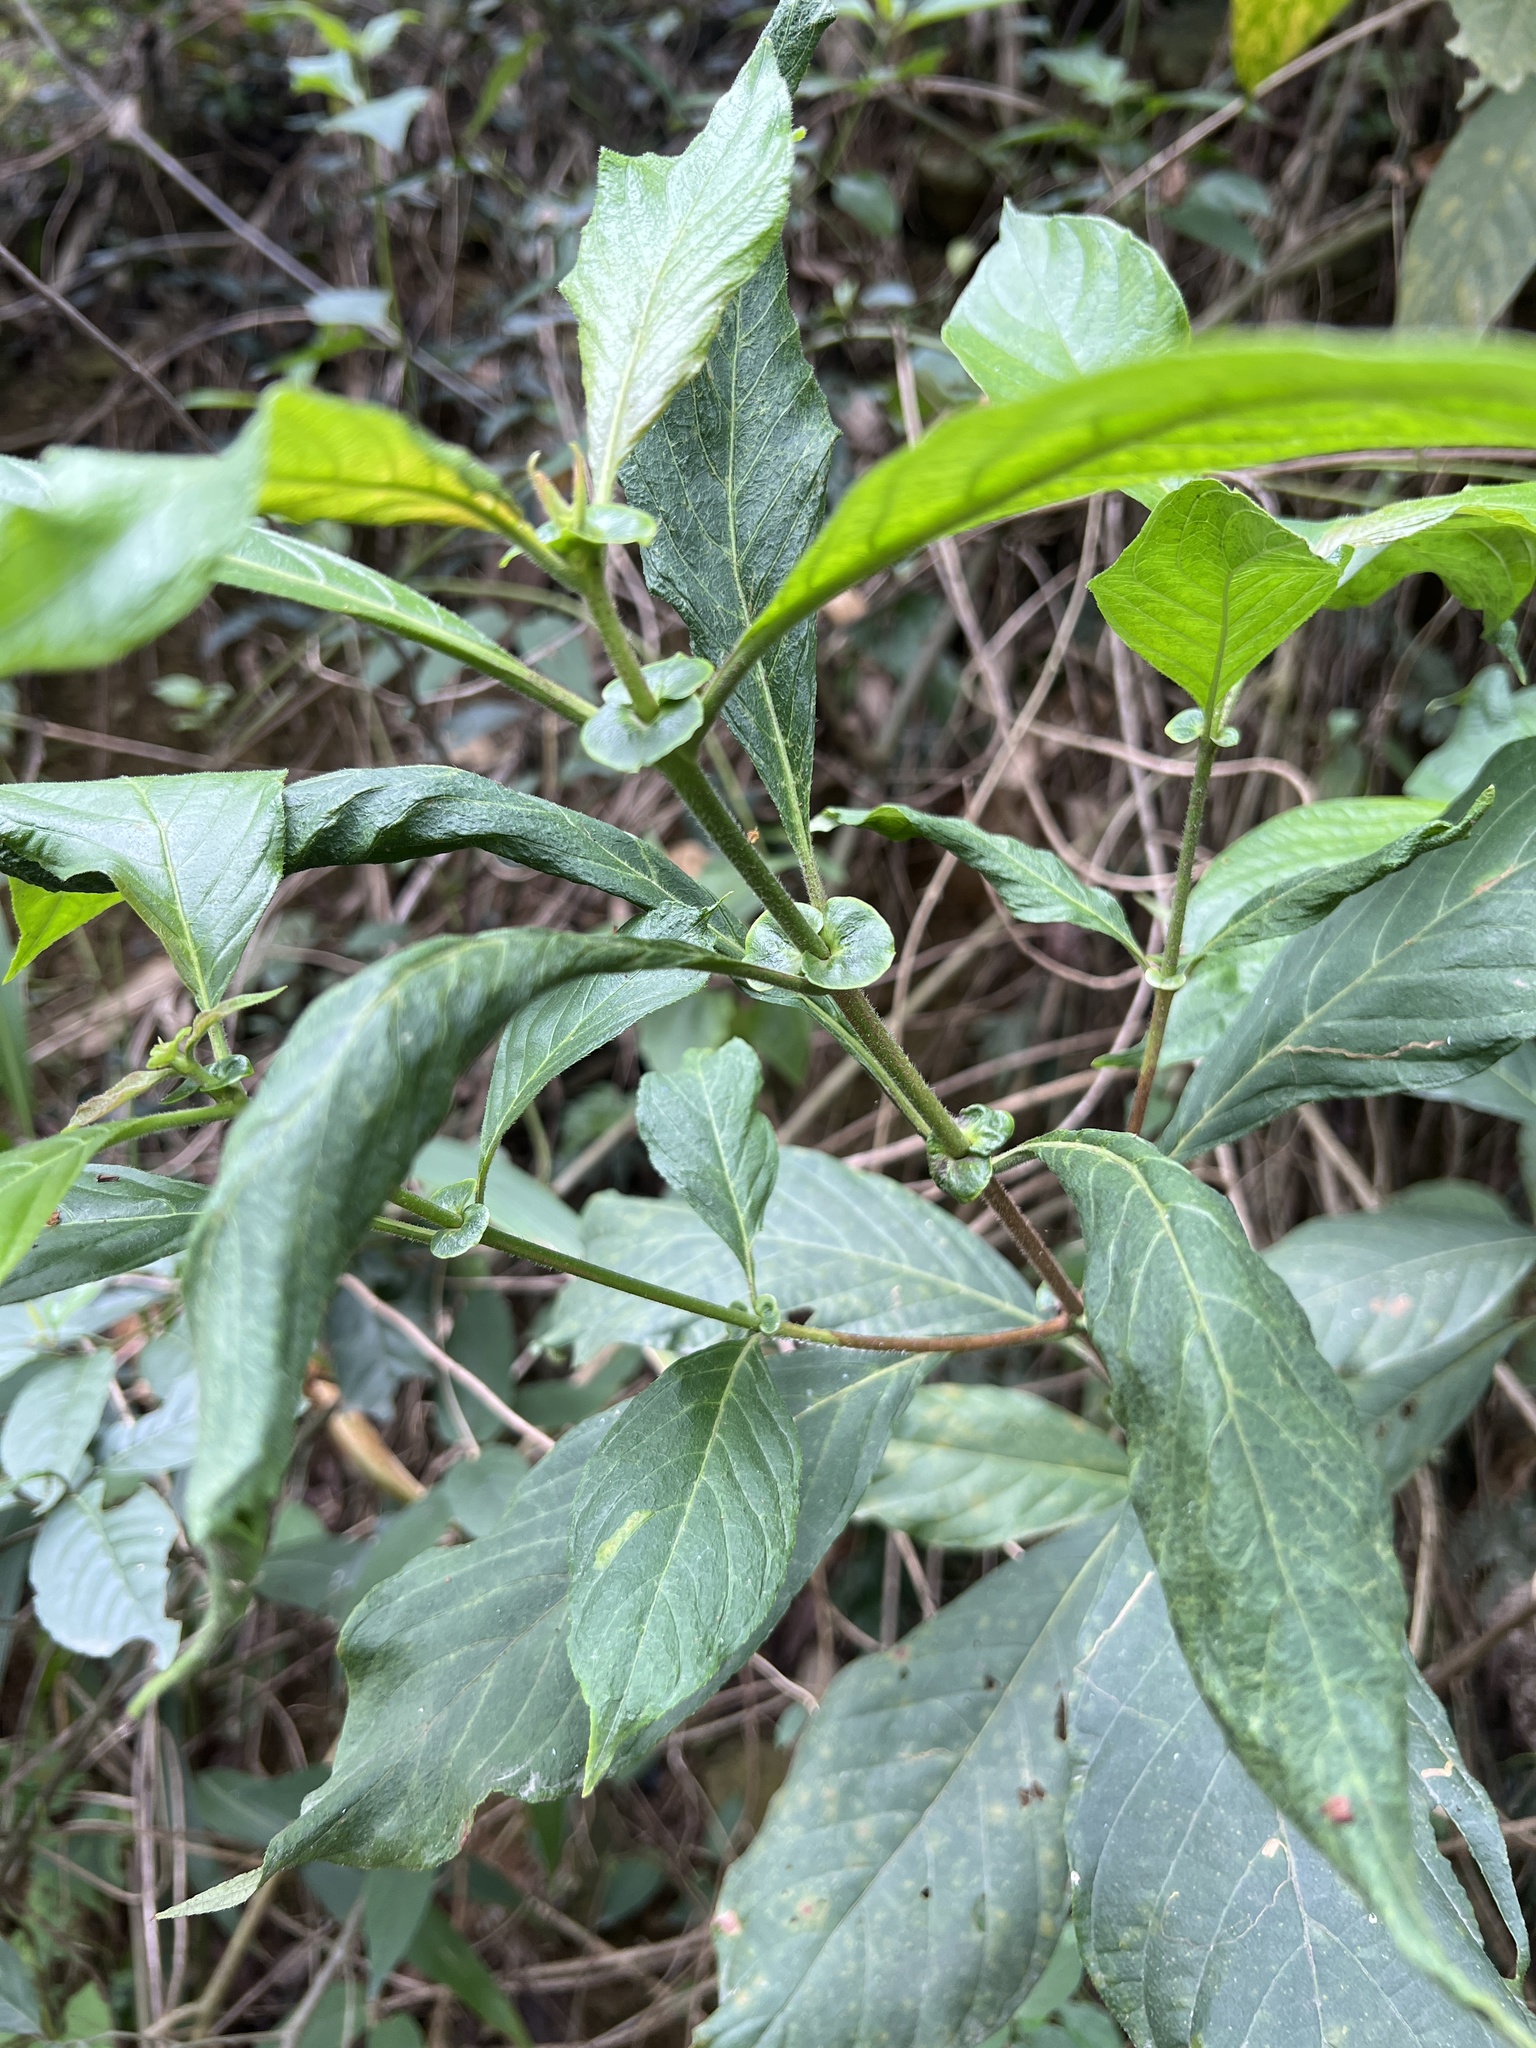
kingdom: Plantae
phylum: Tracheophyta
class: Magnoliopsida
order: Gentianales
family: Rubiaceae
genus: Wendlandia
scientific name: Wendlandia uvariifolia
